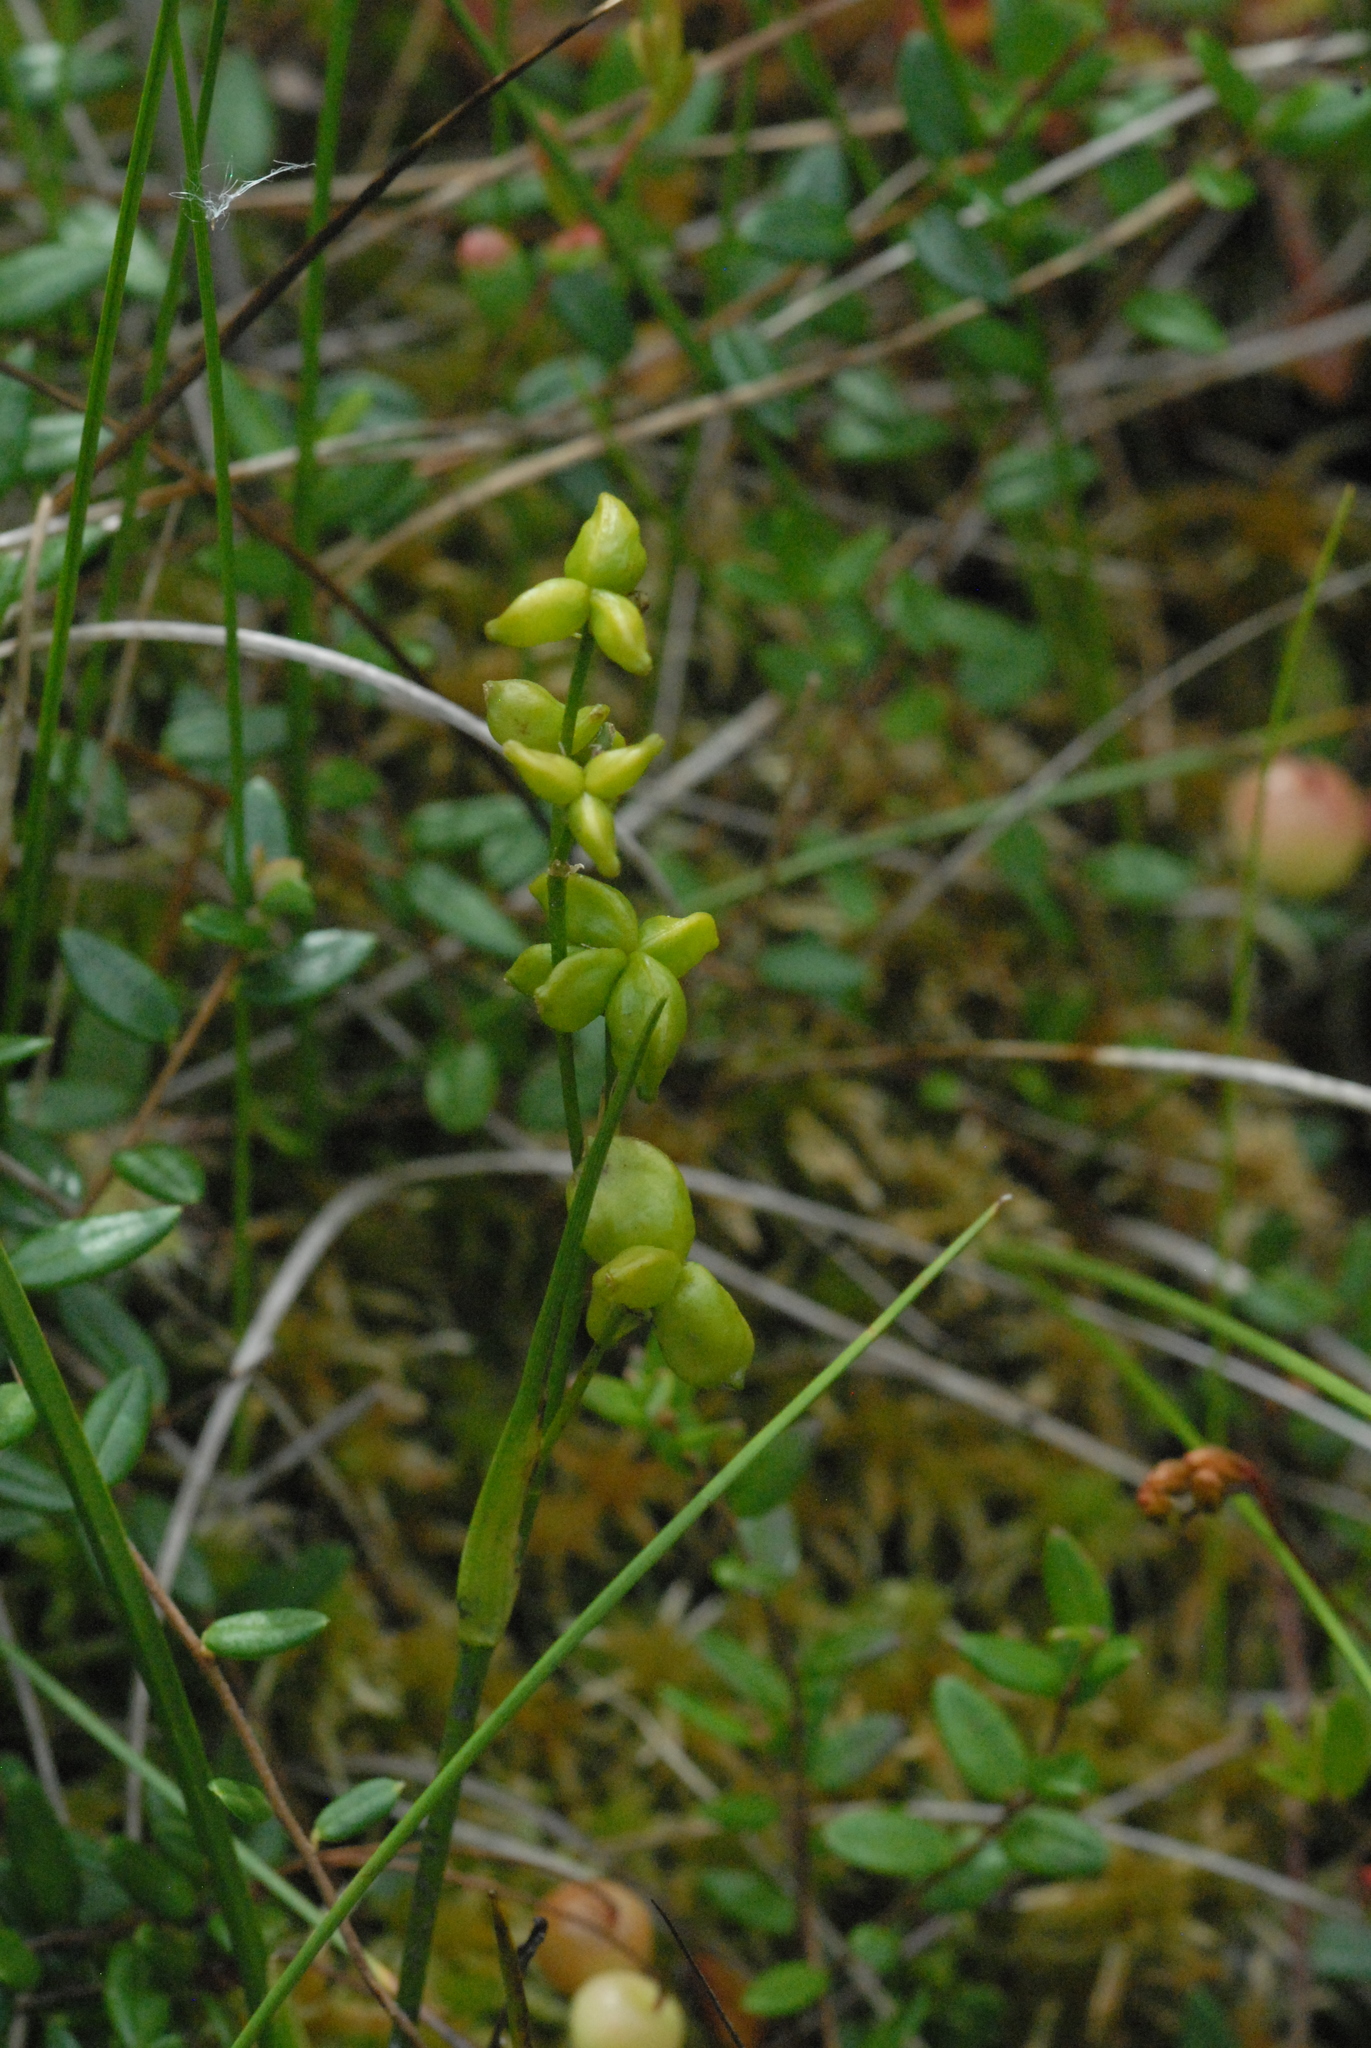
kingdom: Plantae
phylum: Tracheophyta
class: Liliopsida
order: Alismatales
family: Scheuchzeriaceae
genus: Scheuchzeria
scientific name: Scheuchzeria palustris
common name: Rannoch-rush
